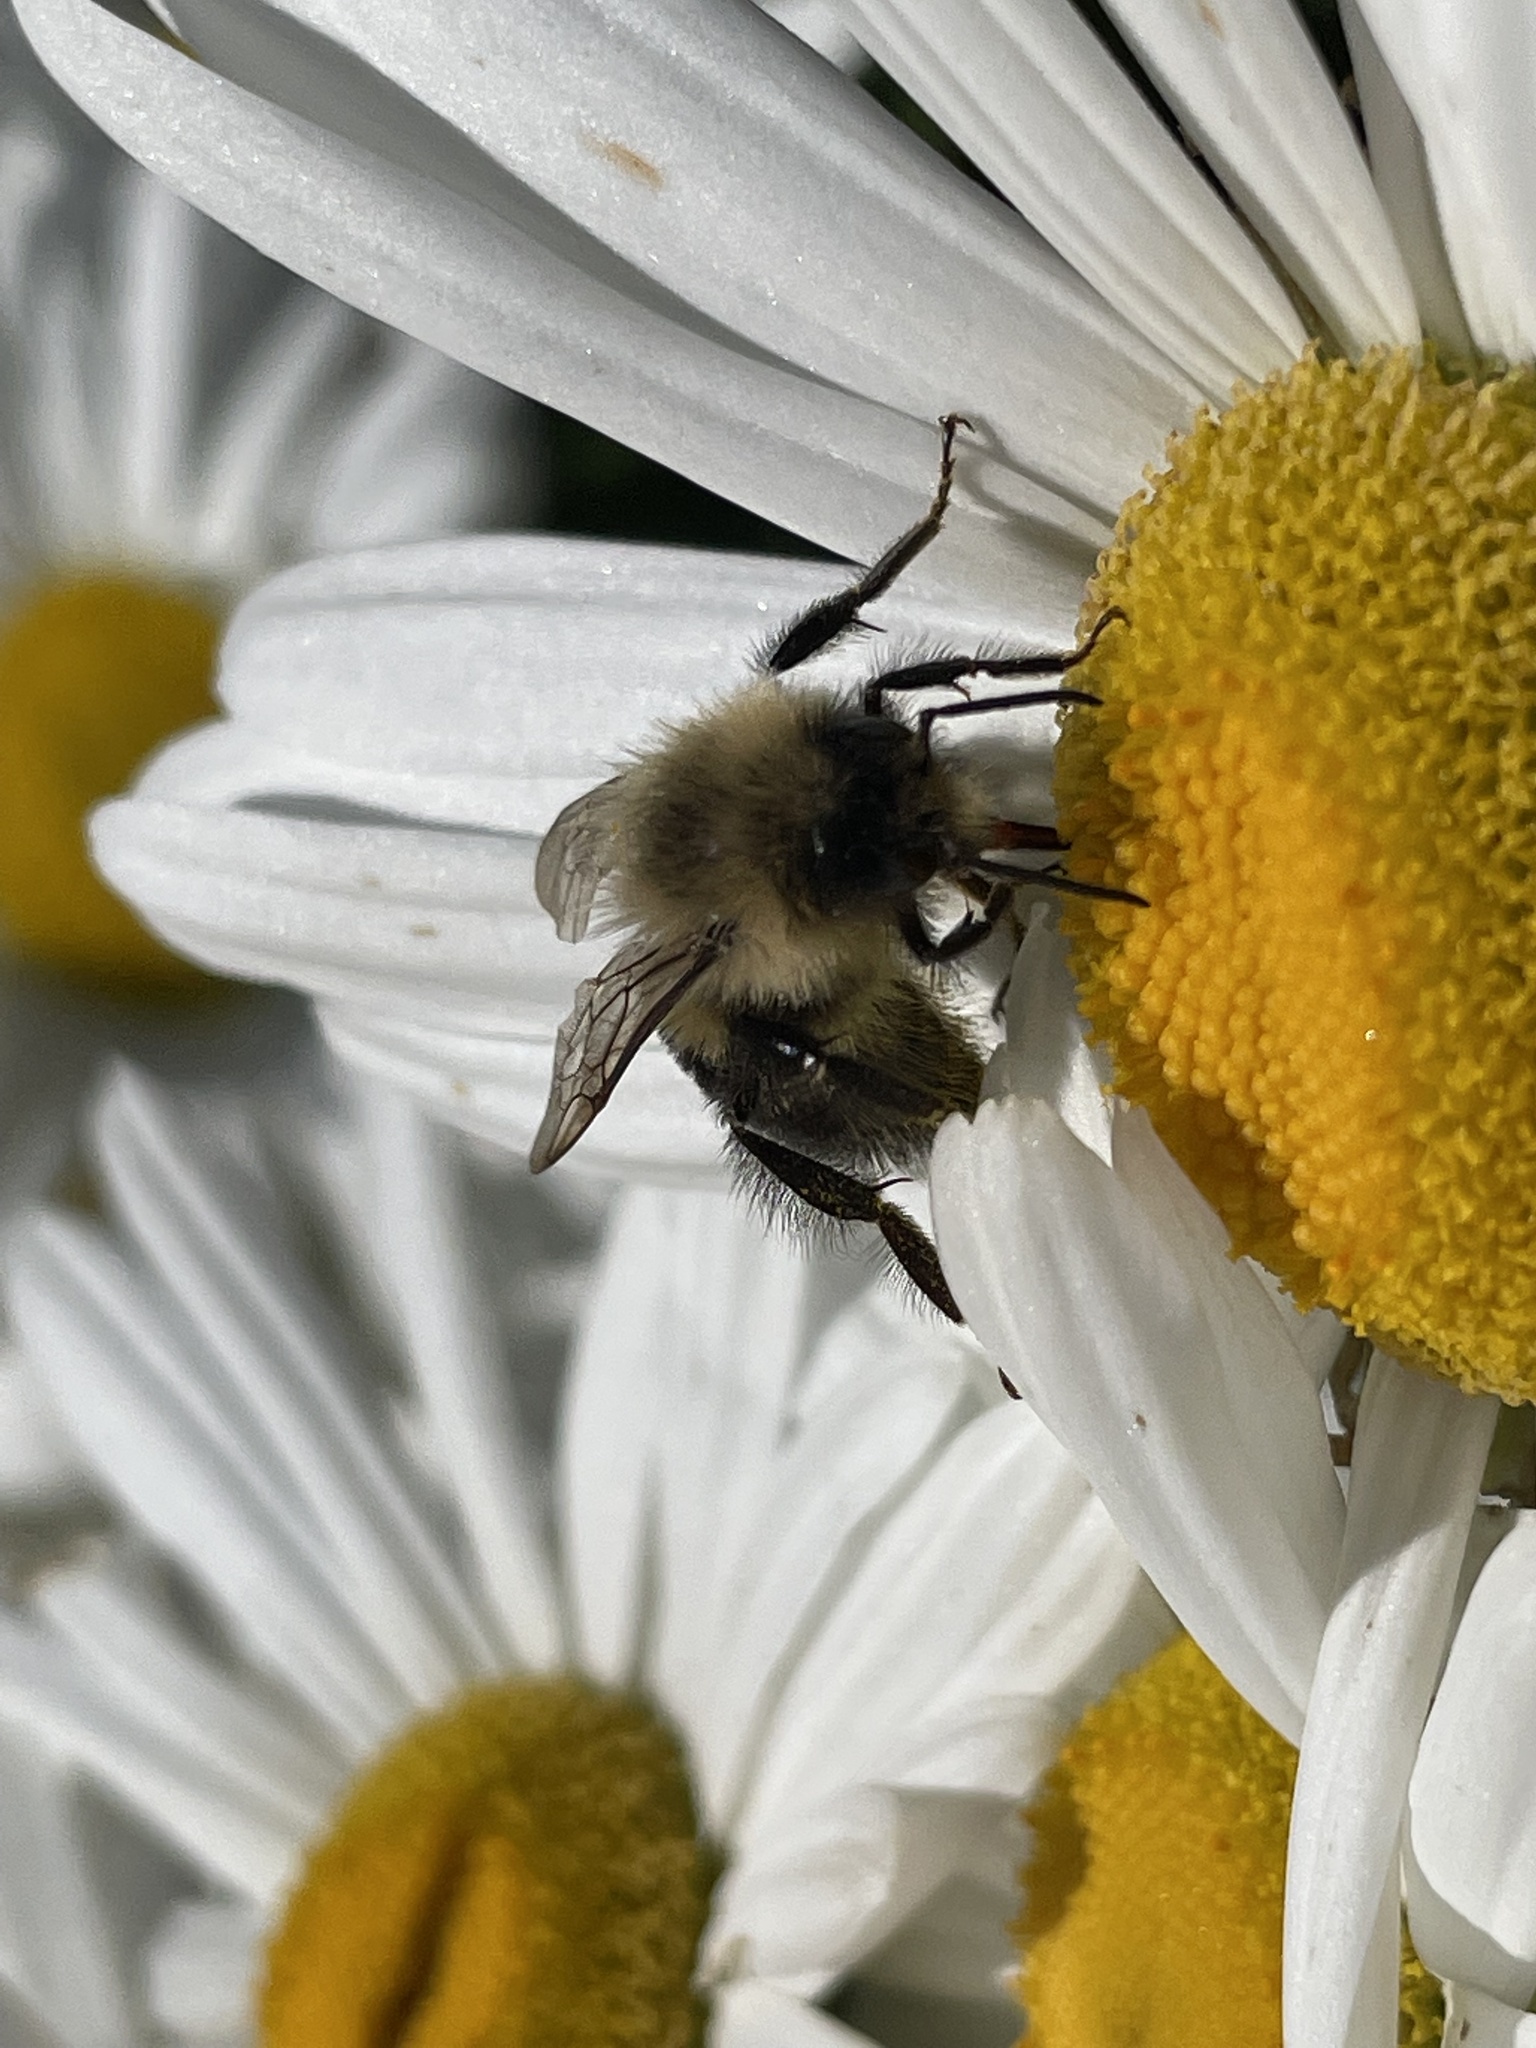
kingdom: Animalia
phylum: Arthropoda
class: Insecta
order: Hymenoptera
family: Apidae
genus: Bombus
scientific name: Bombus impatiens
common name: Common eastern bumble bee
